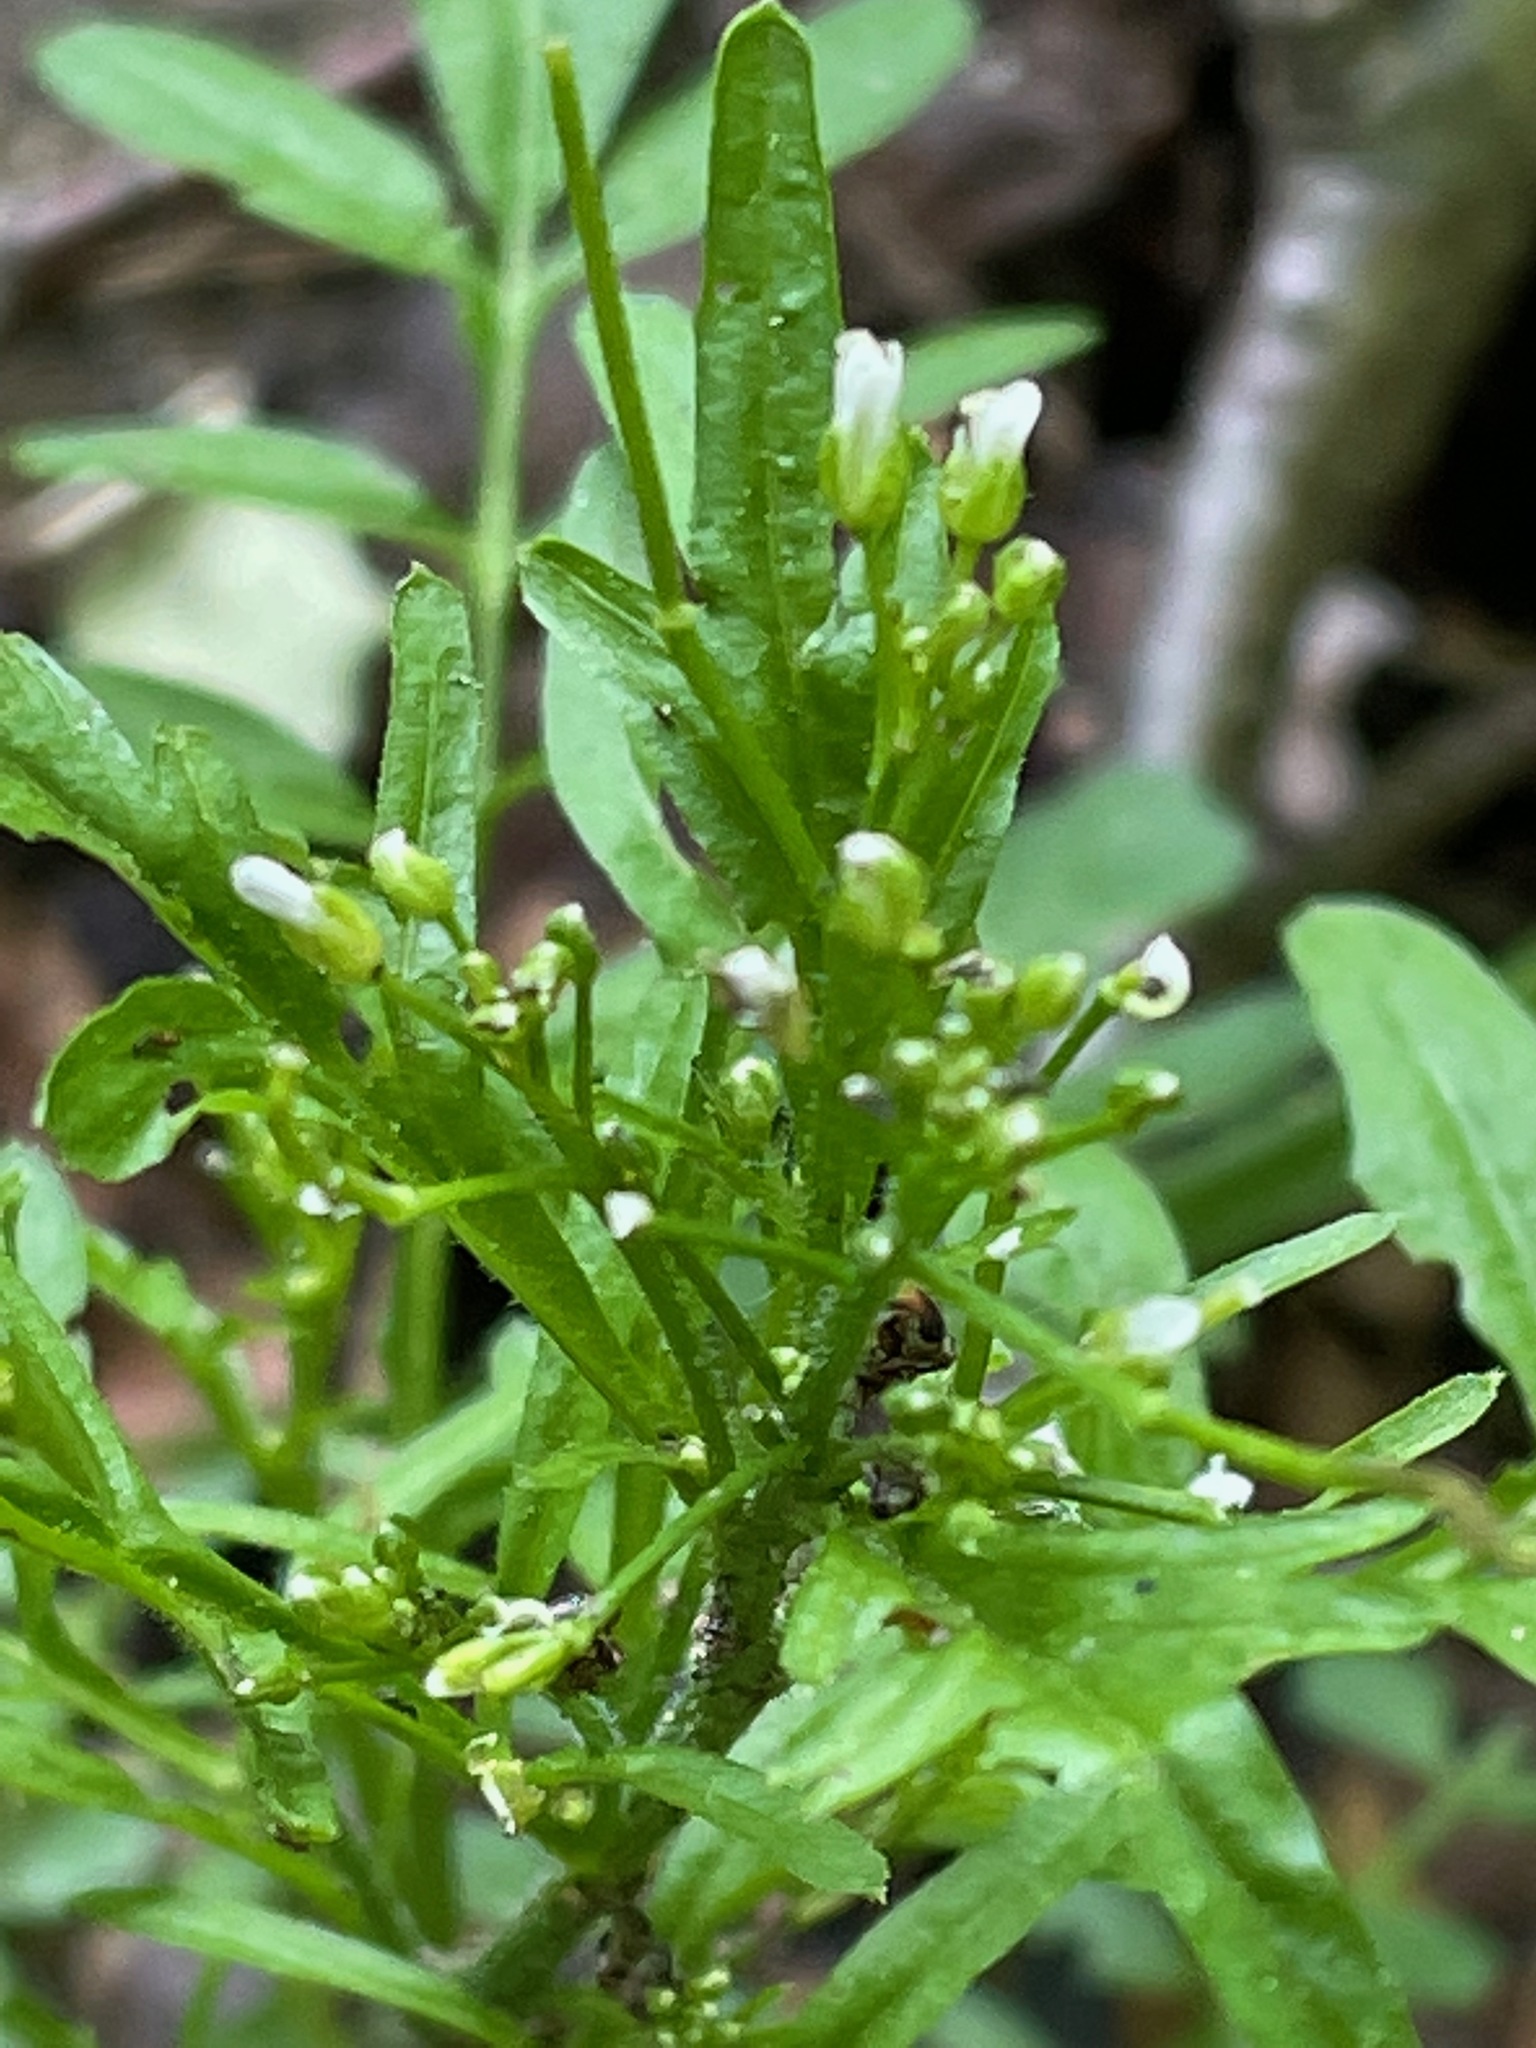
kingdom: Plantae
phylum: Tracheophyta
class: Magnoliopsida
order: Brassicales
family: Brassicaceae
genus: Cardamine
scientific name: Cardamine pensylvanica
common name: Pennsylvania bittercress
